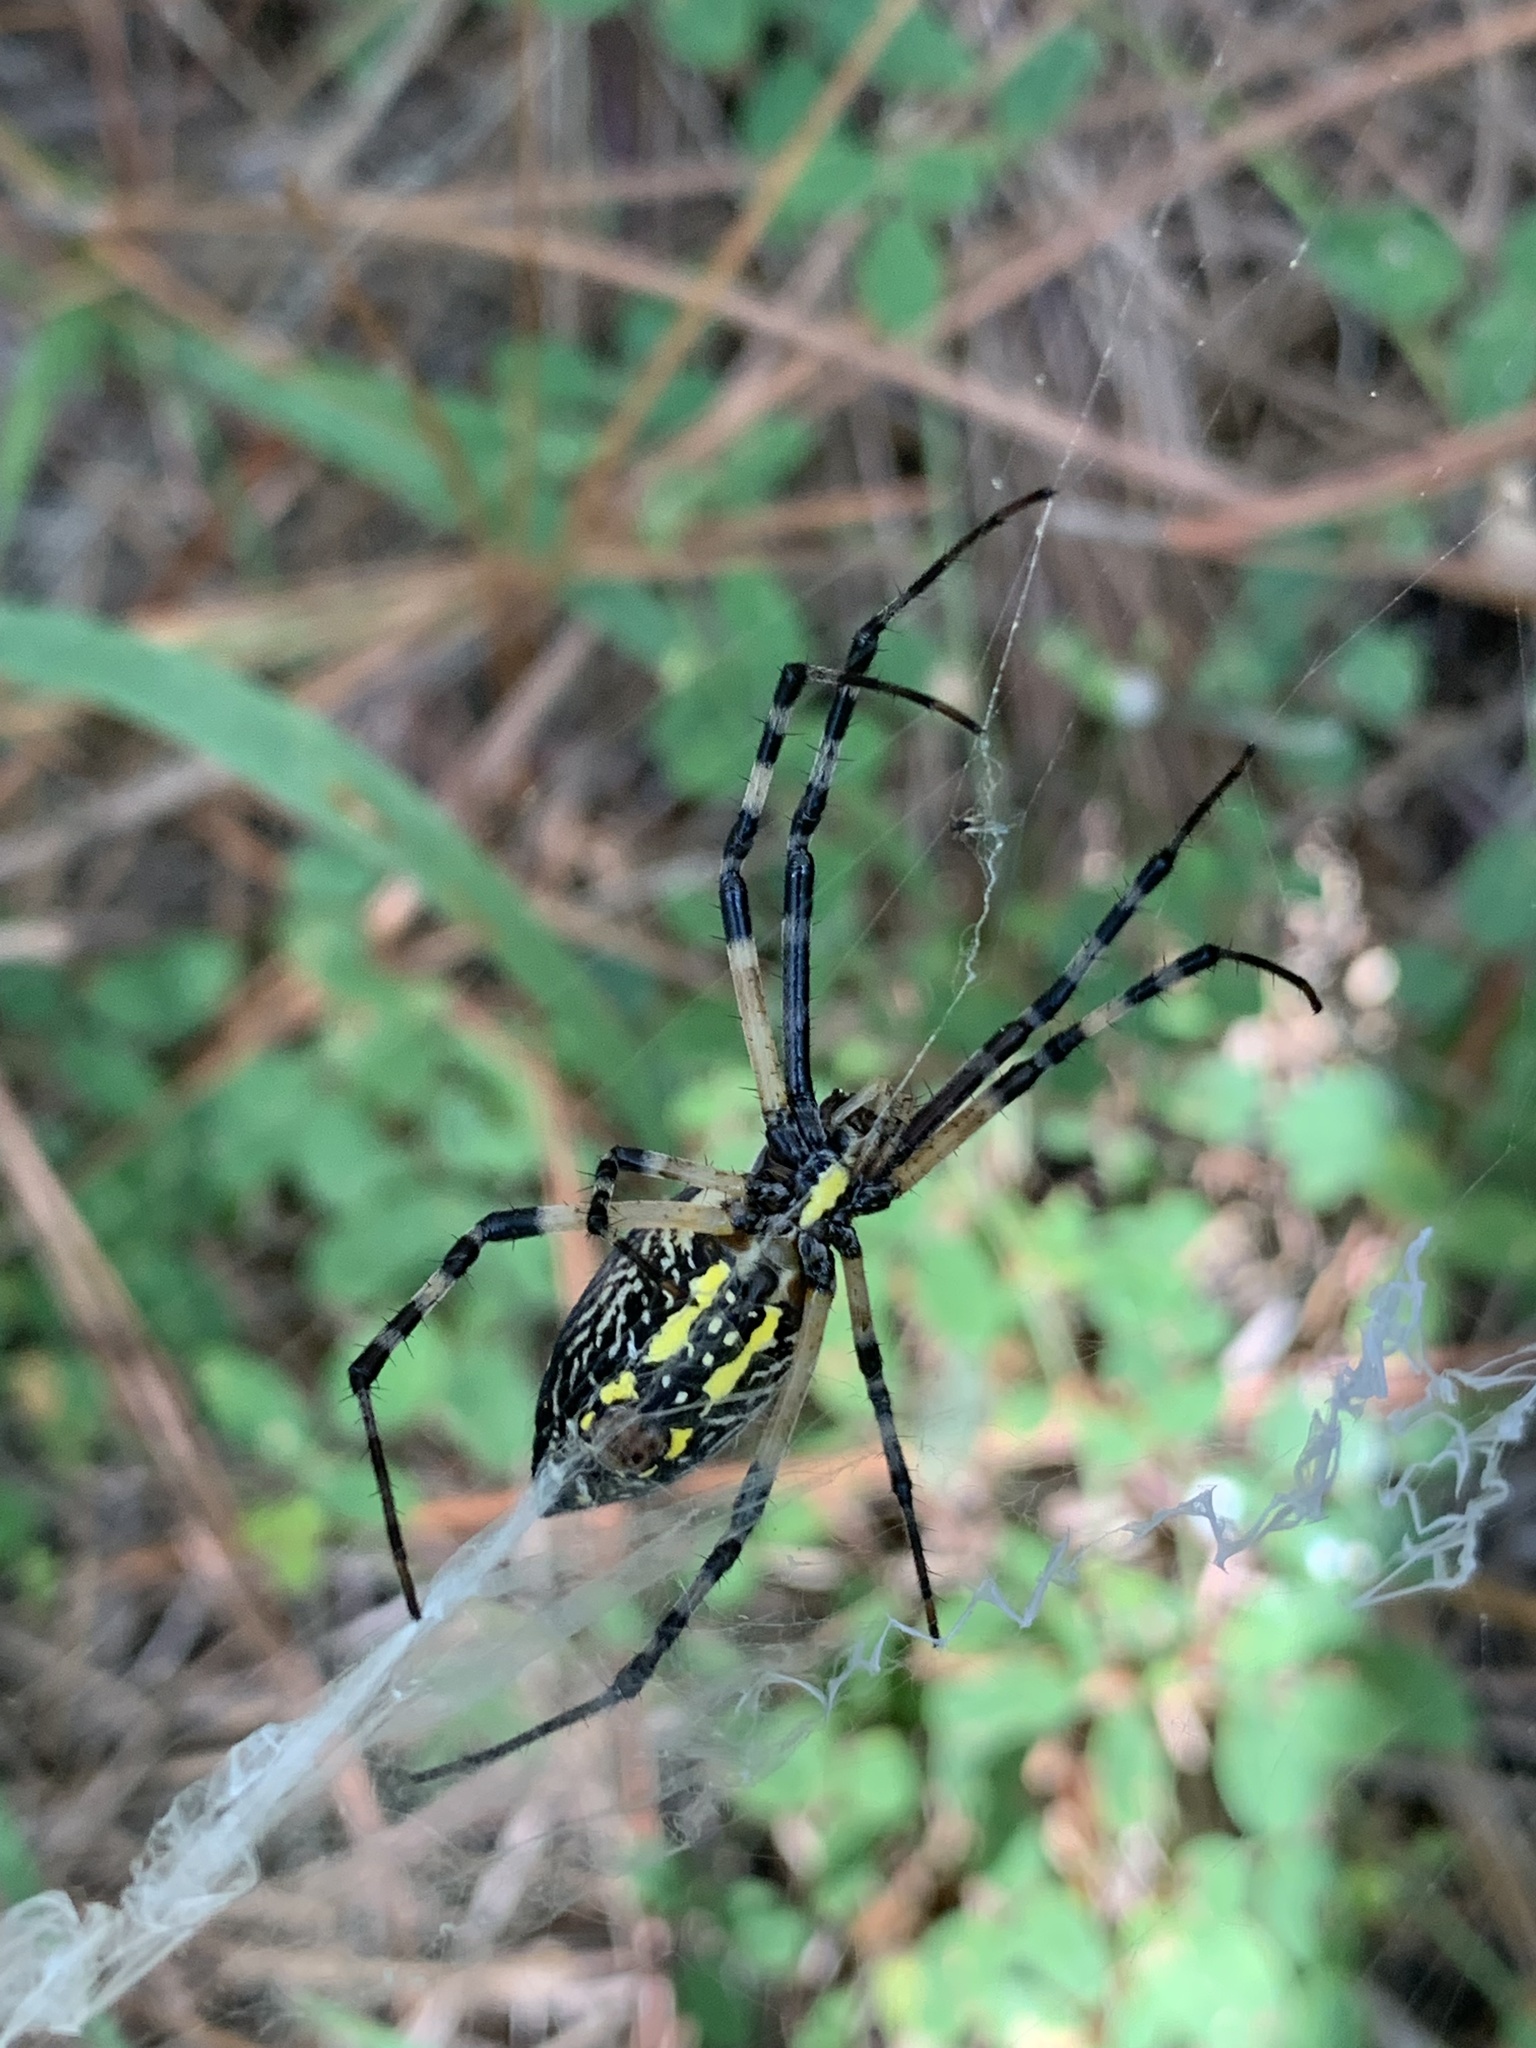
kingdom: Animalia
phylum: Arthropoda
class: Arachnida
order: Araneae
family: Araneidae
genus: Argiope
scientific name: Argiope aurantia
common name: Orb weavers
